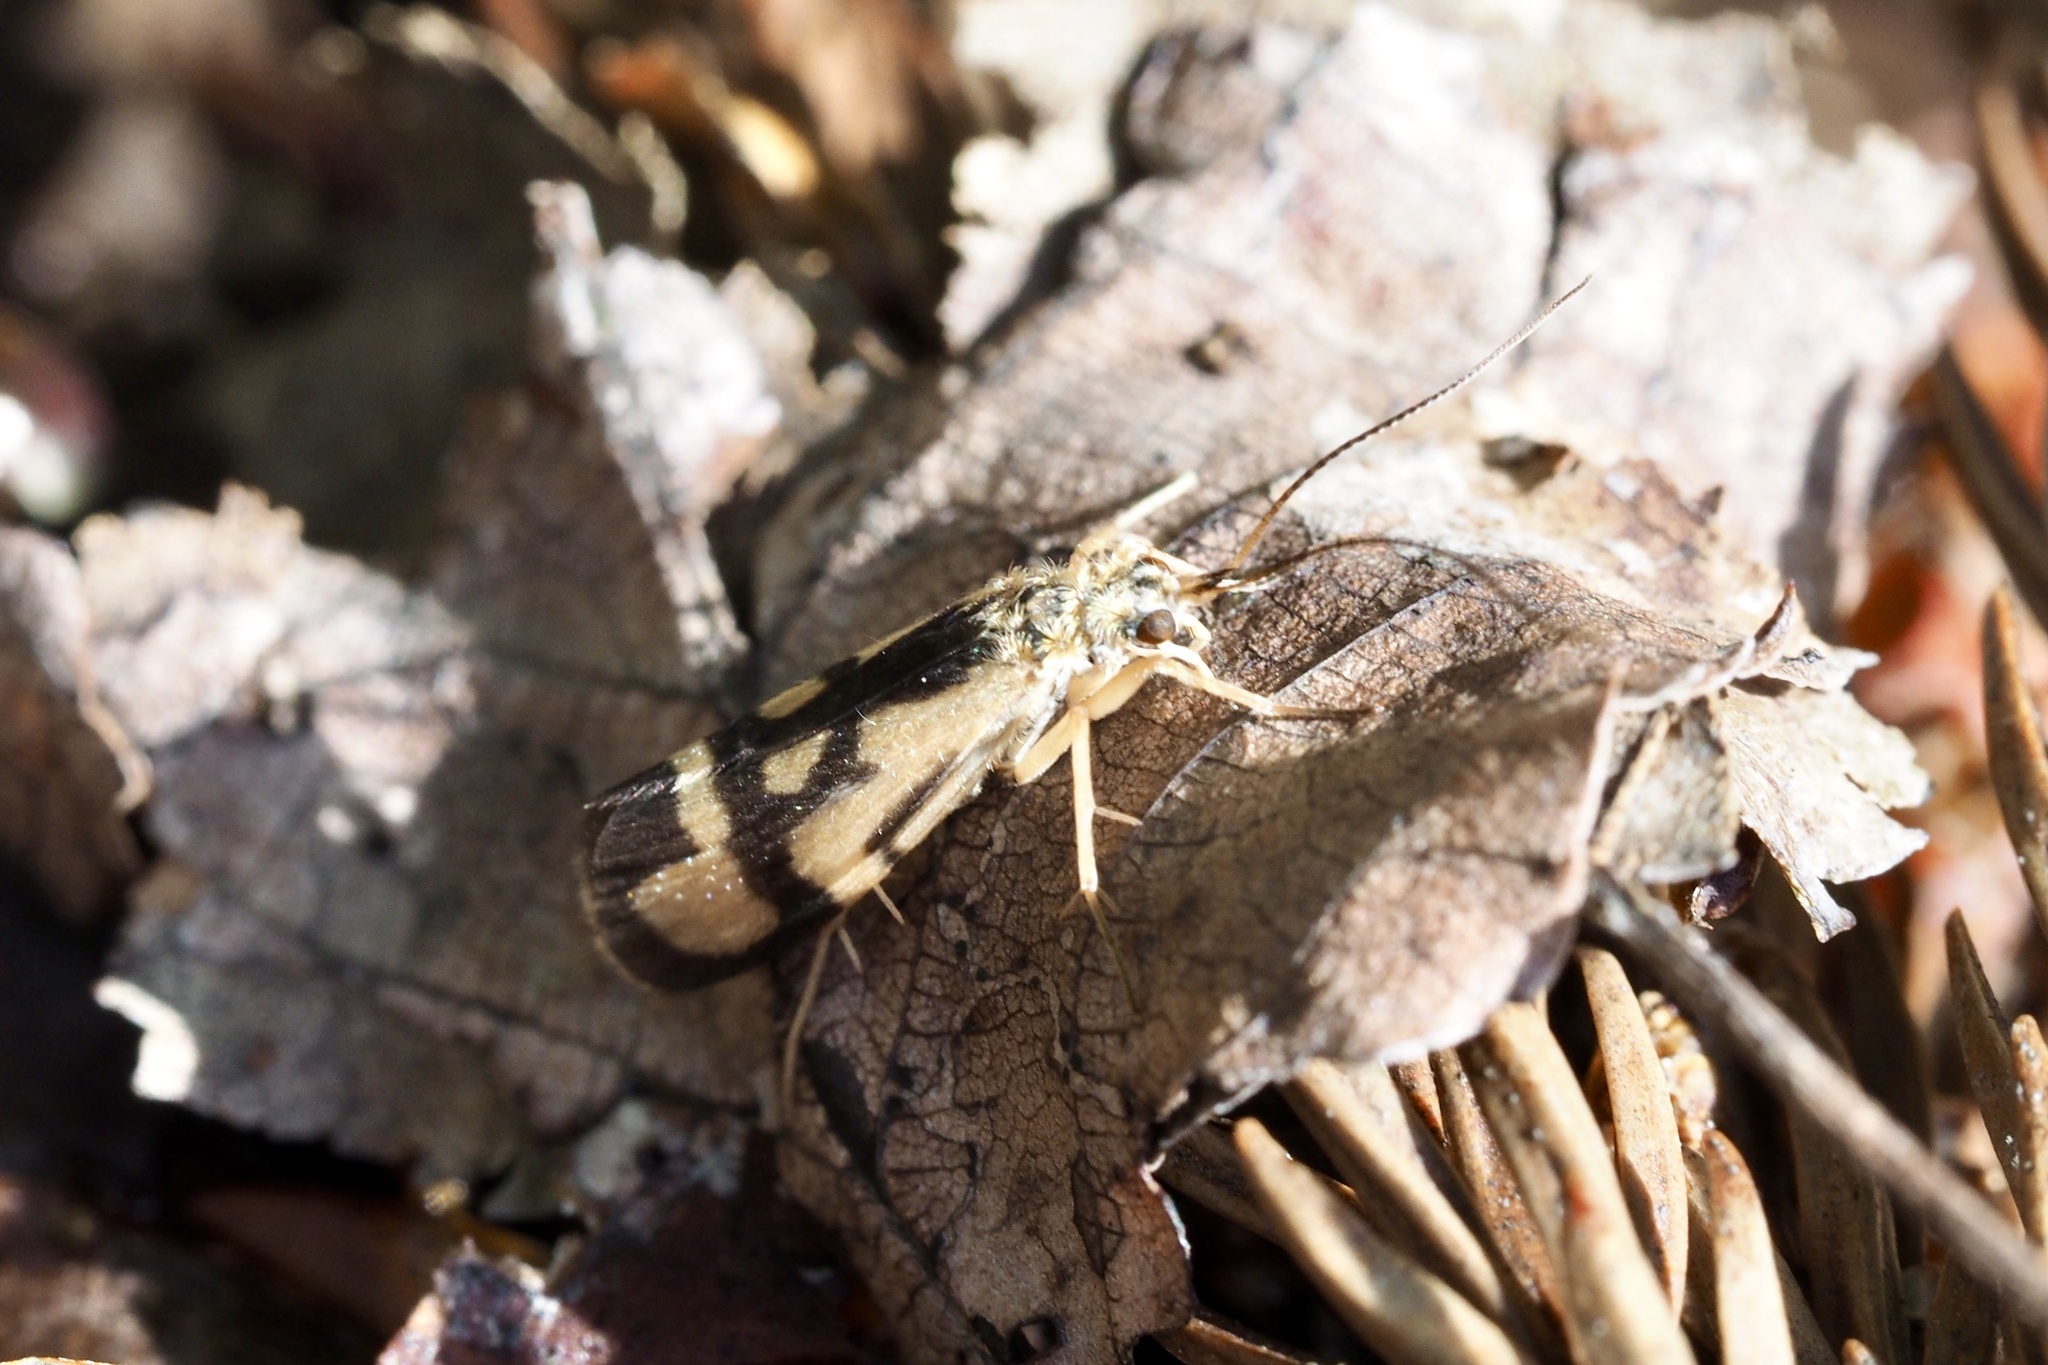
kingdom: Animalia
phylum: Arthropoda
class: Insecta
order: Trichoptera
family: Hydropsychidae
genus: Diplectrona
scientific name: Diplectrona japonica
